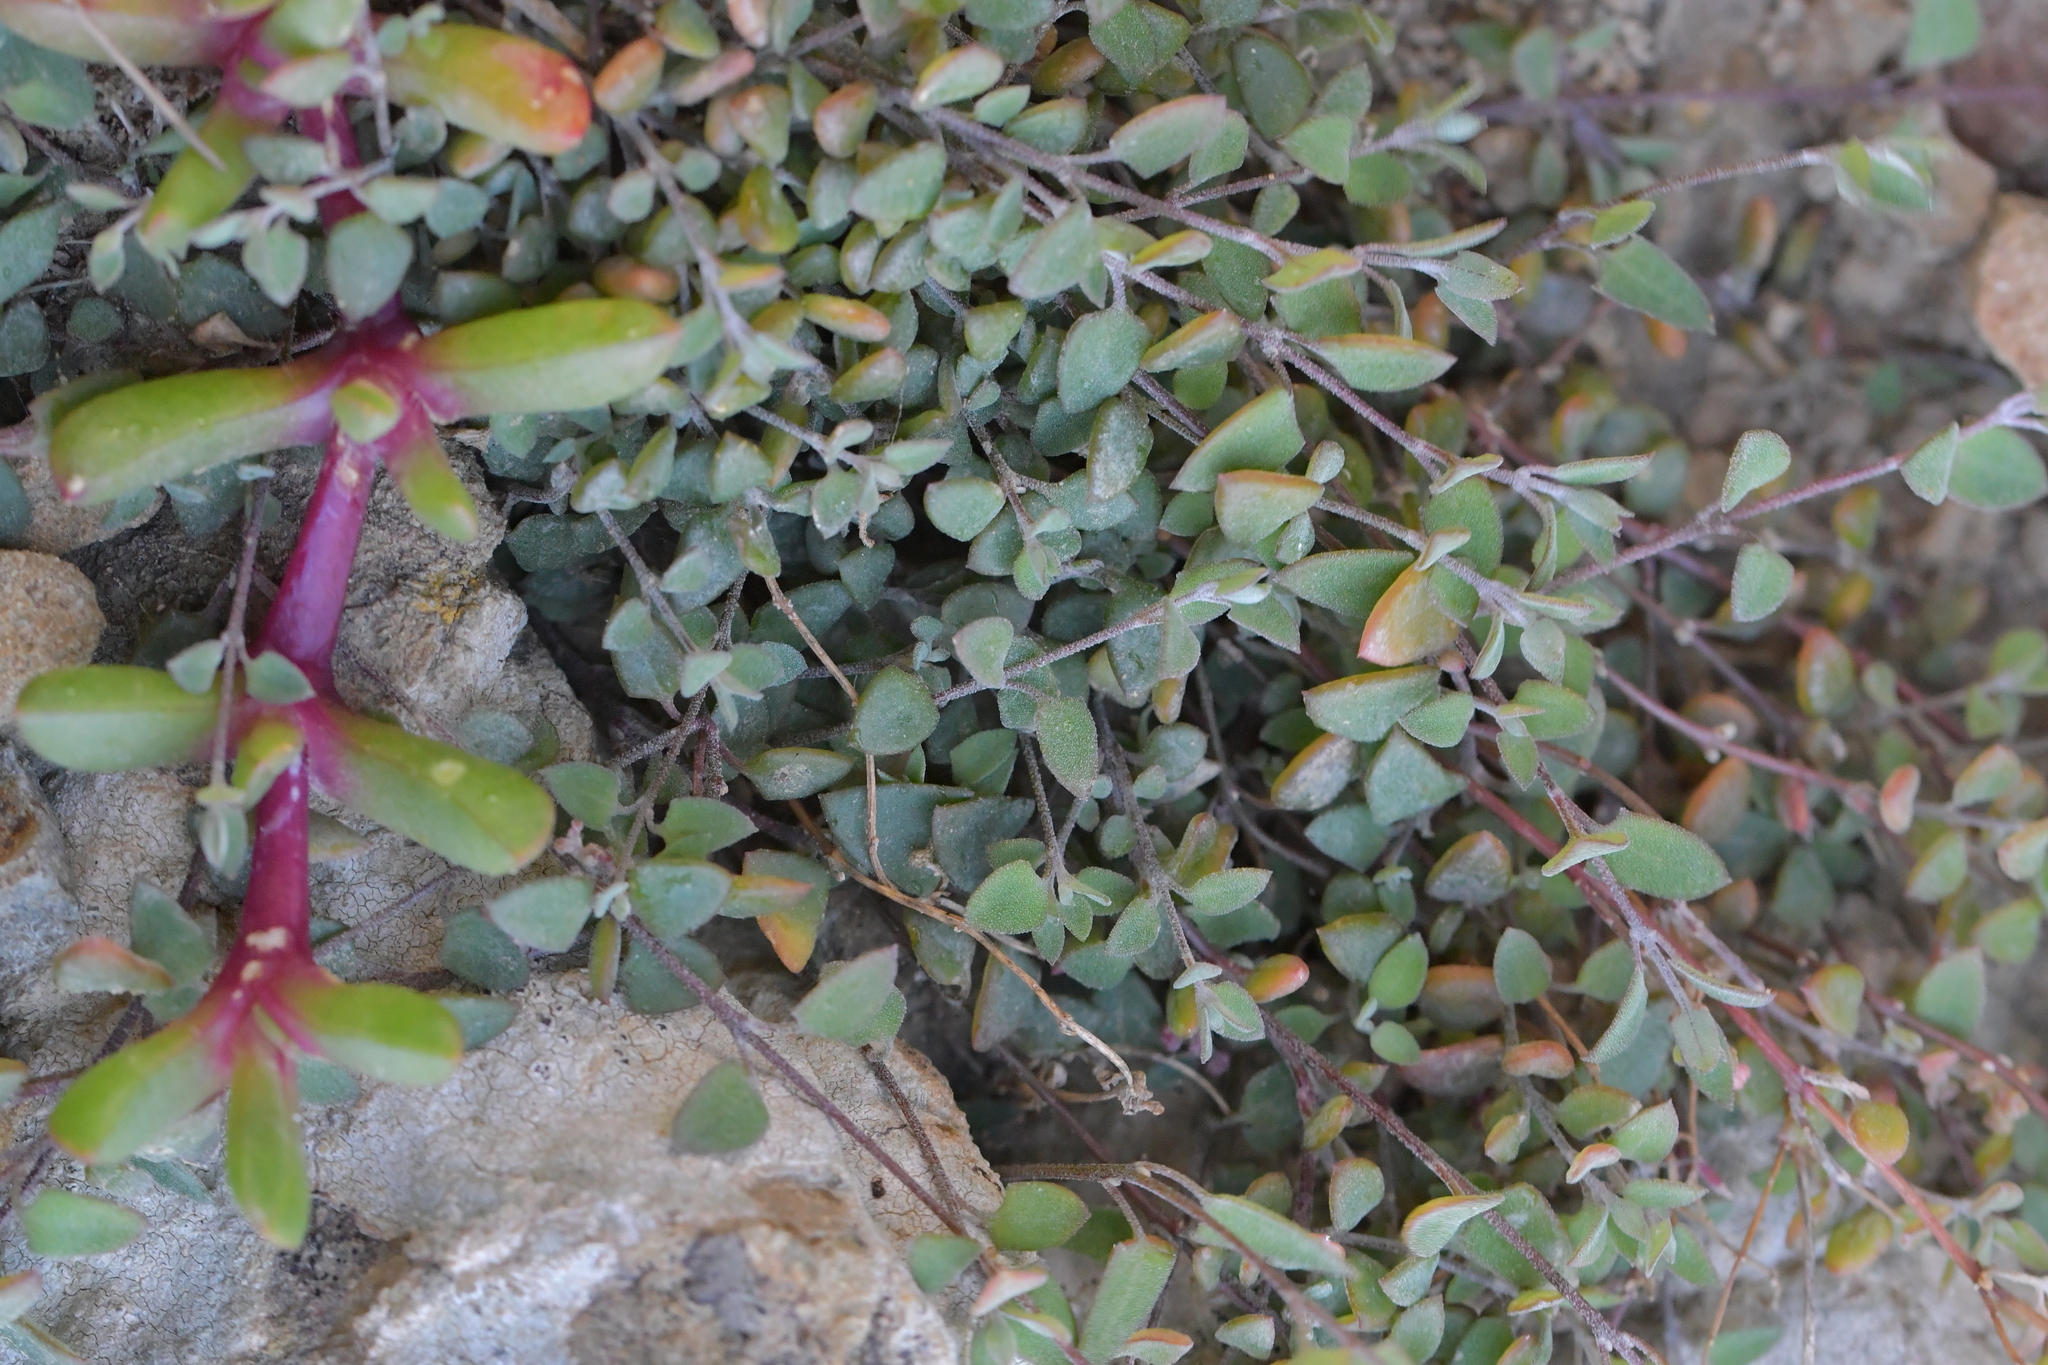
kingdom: Plantae
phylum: Tracheophyta
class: Magnoliopsida
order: Caryophyllales
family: Amaranthaceae
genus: Chenopodium
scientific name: Chenopodium triandrum
